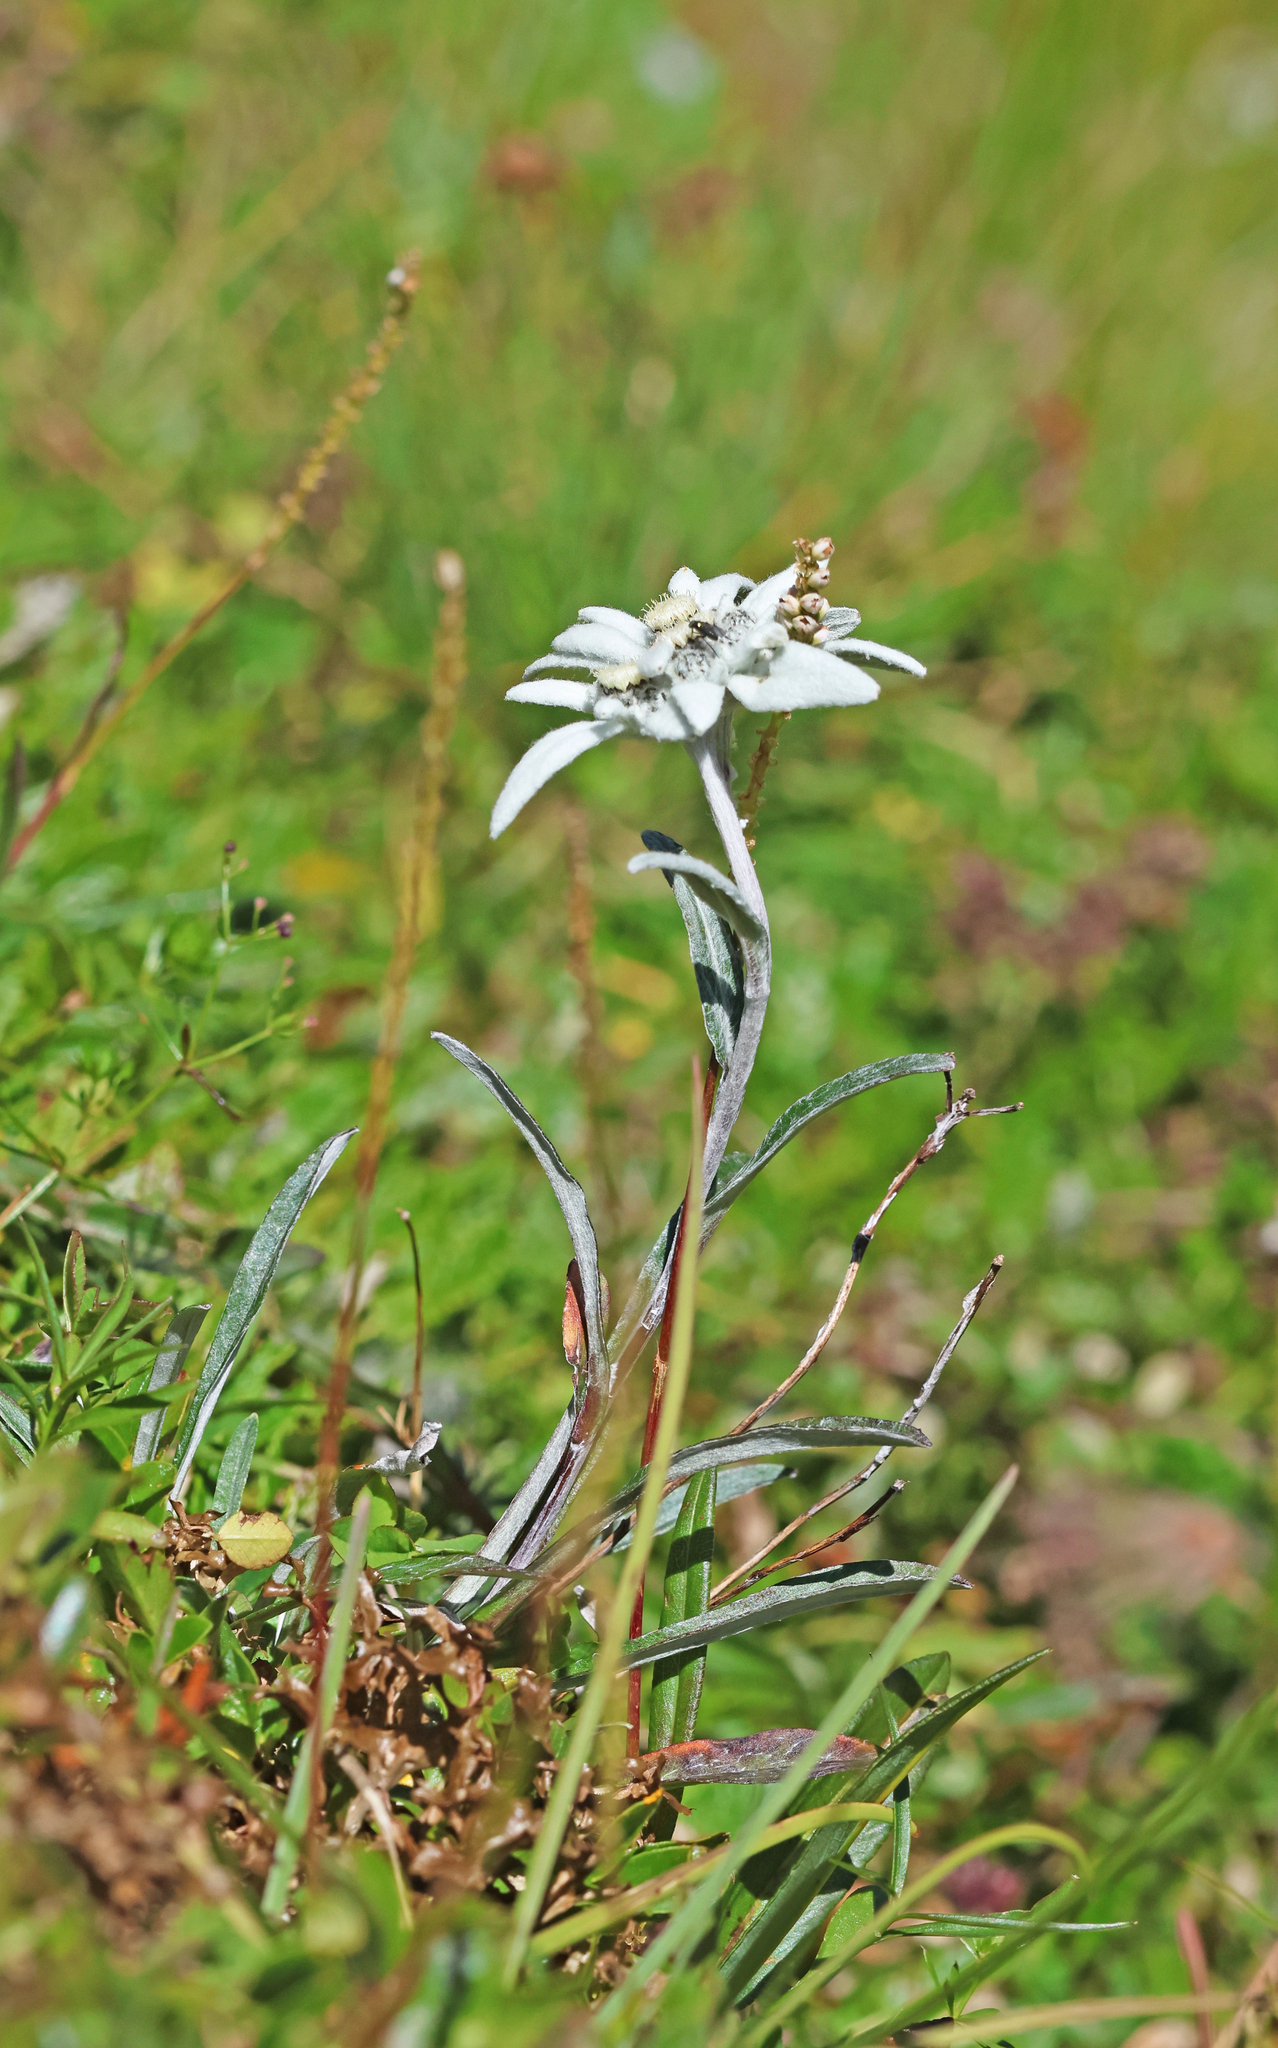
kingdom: Plantae
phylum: Tracheophyta
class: Magnoliopsida
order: Asterales
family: Asteraceae
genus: Leontopodium
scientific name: Leontopodium nivale
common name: Edelweiss
